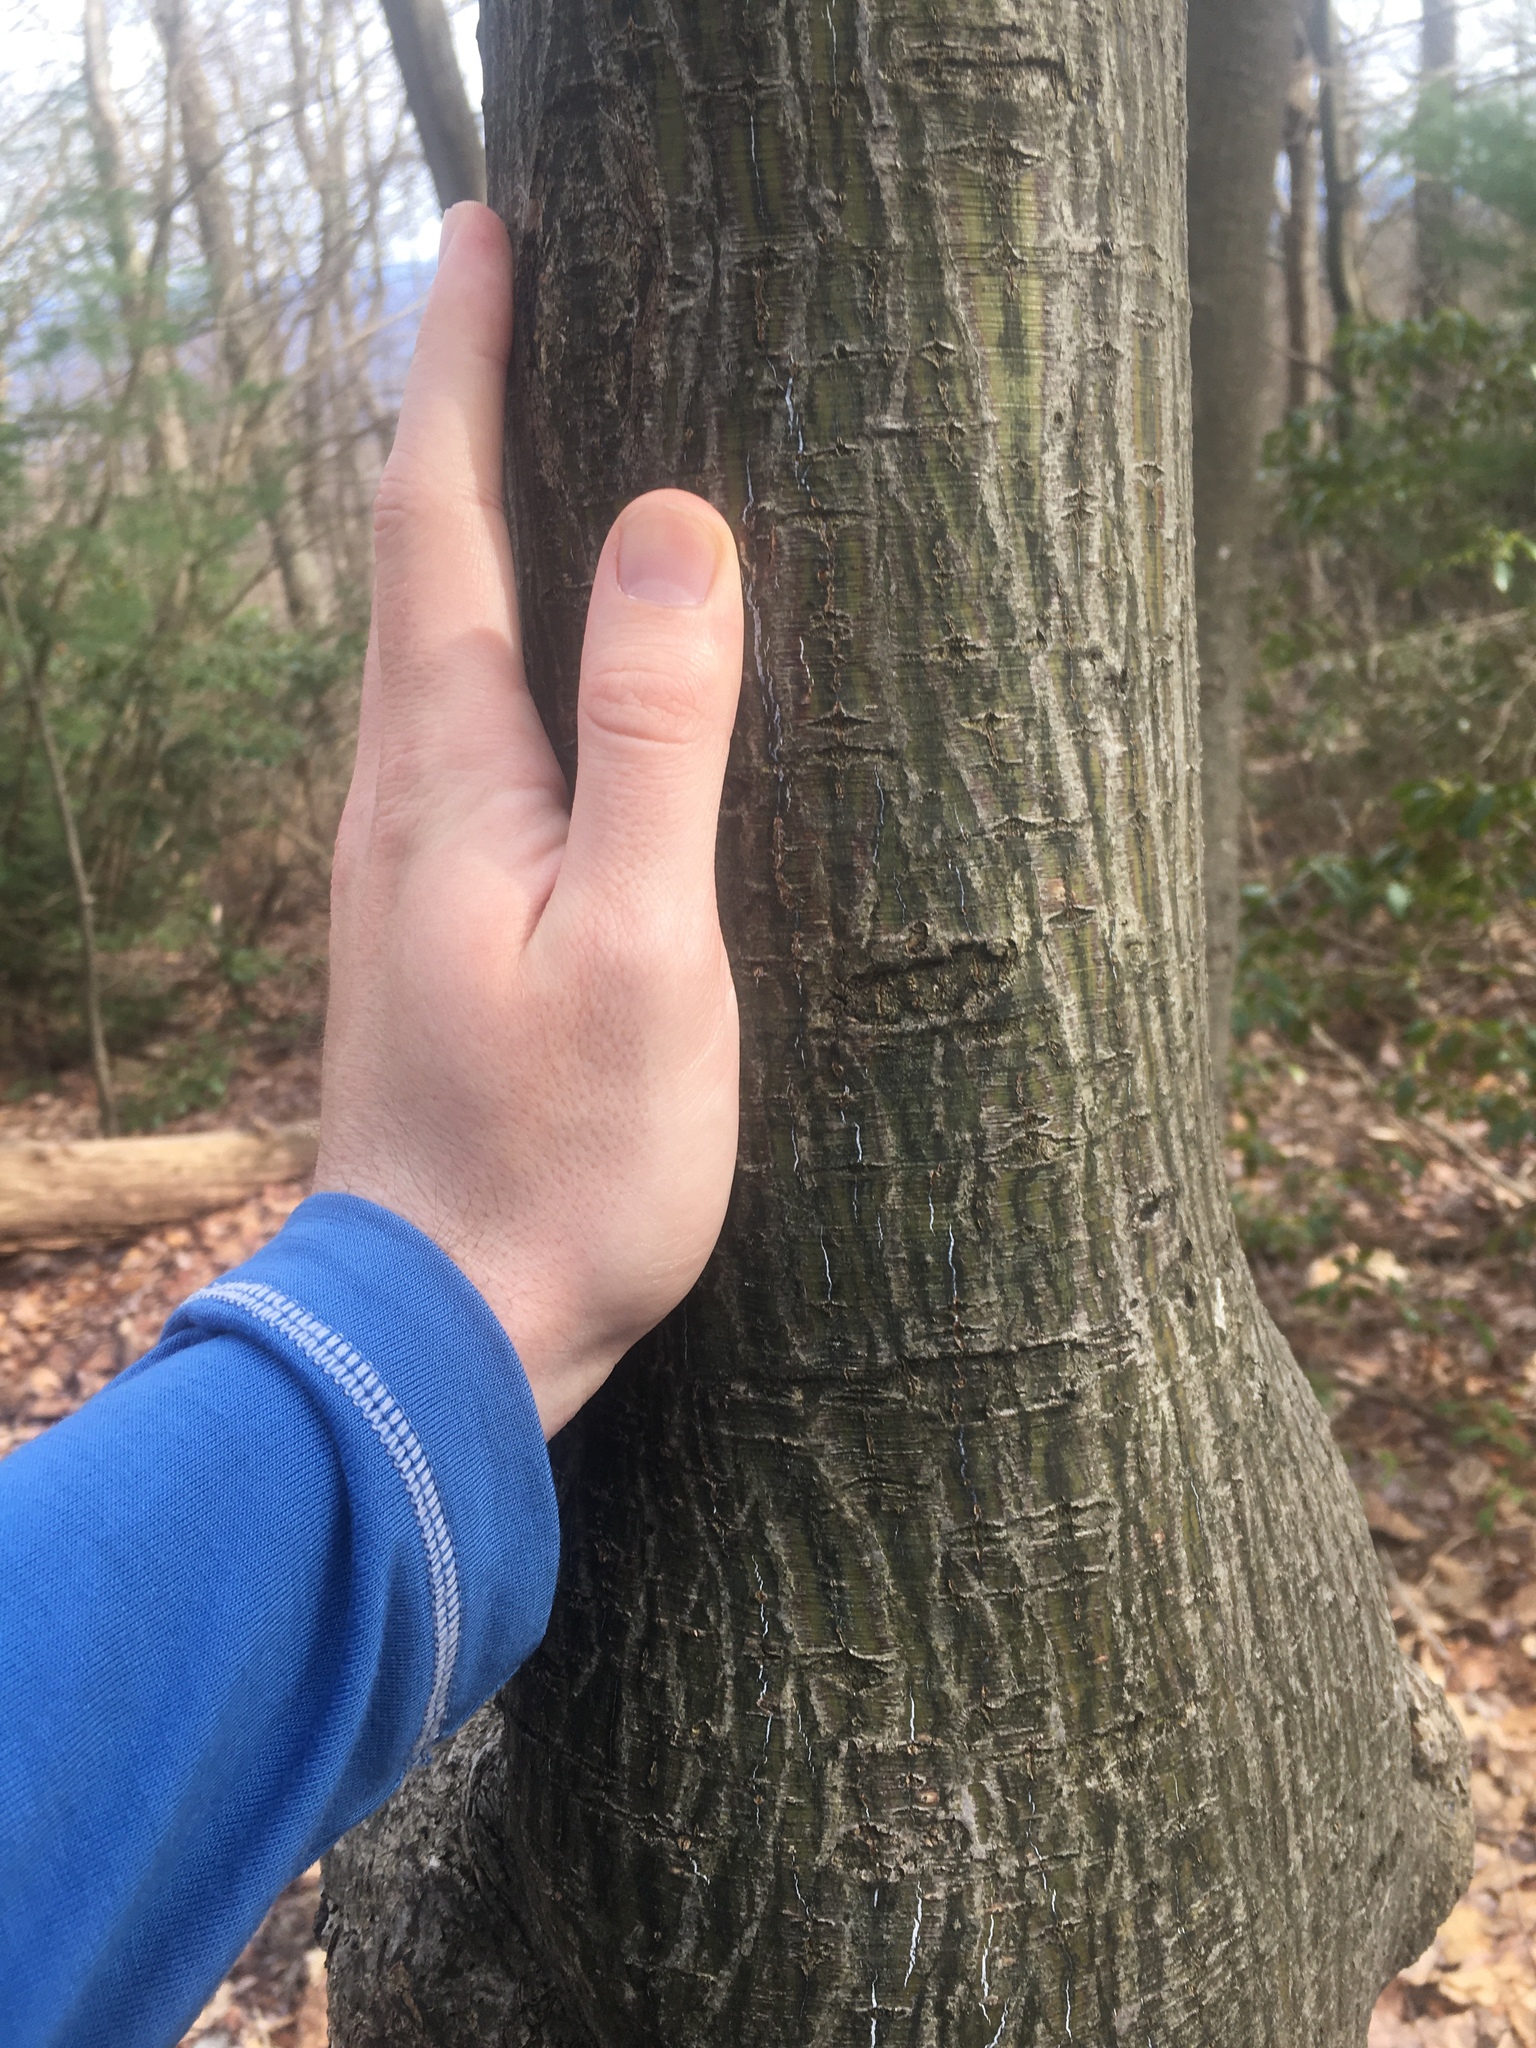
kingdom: Plantae
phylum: Tracheophyta
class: Magnoliopsida
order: Sapindales
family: Sapindaceae
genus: Acer
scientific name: Acer pensylvanicum
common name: Moosewood
